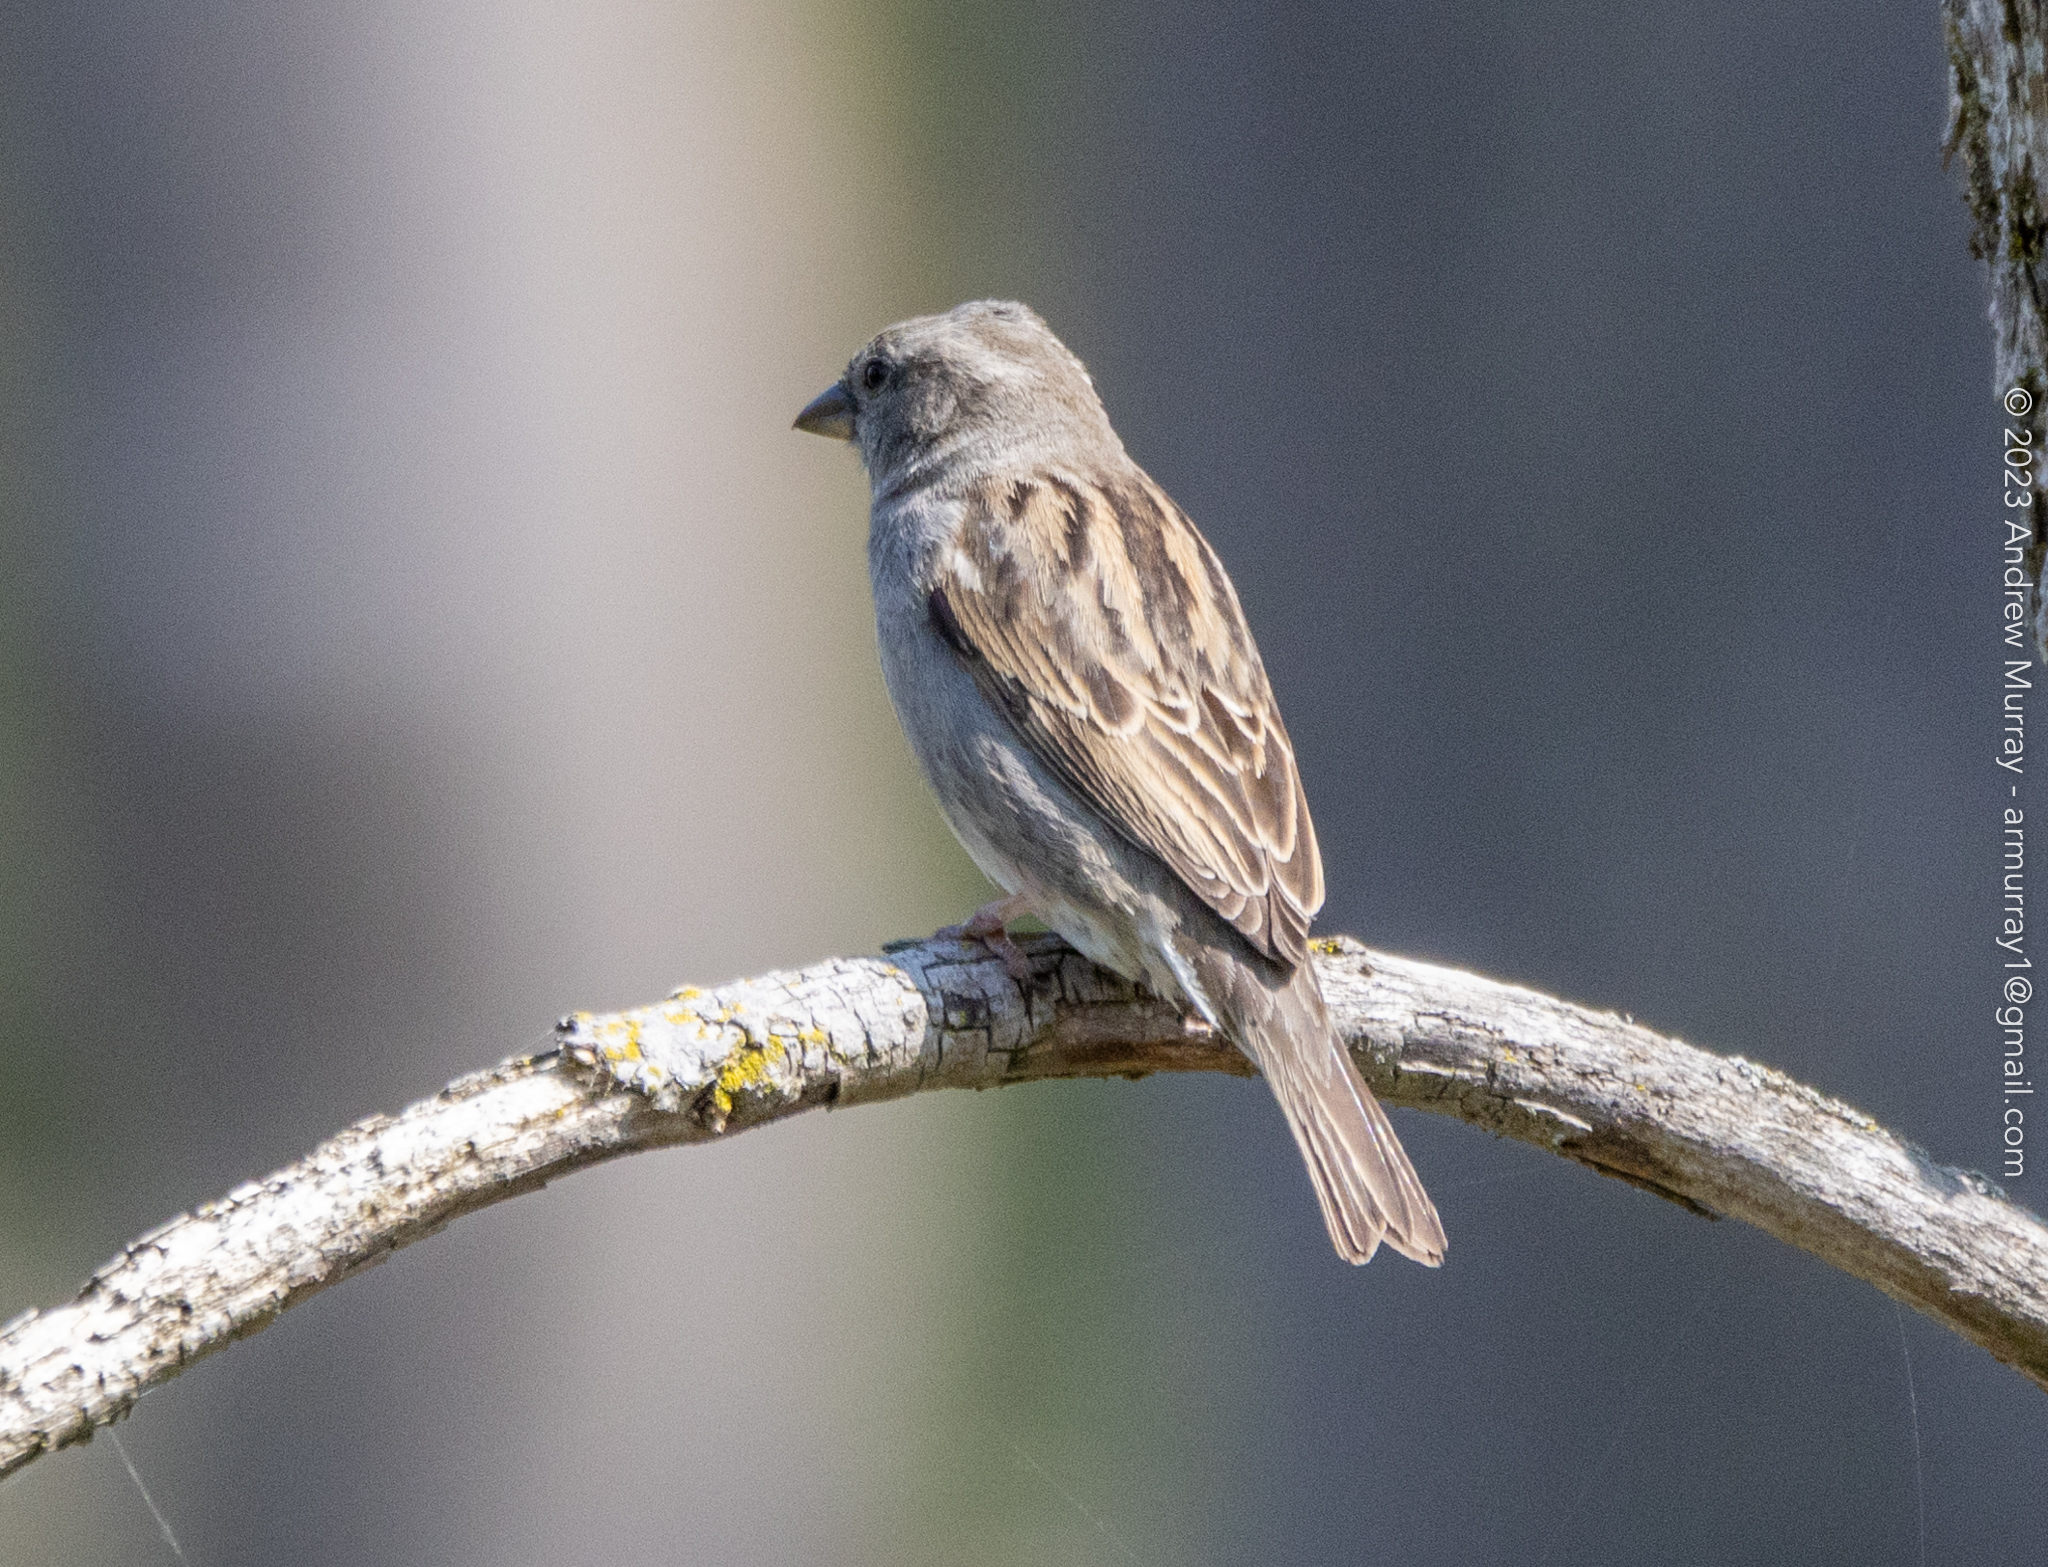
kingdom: Animalia
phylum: Chordata
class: Aves
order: Passeriformes
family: Passeridae
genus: Passer
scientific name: Passer domesticus
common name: House sparrow
